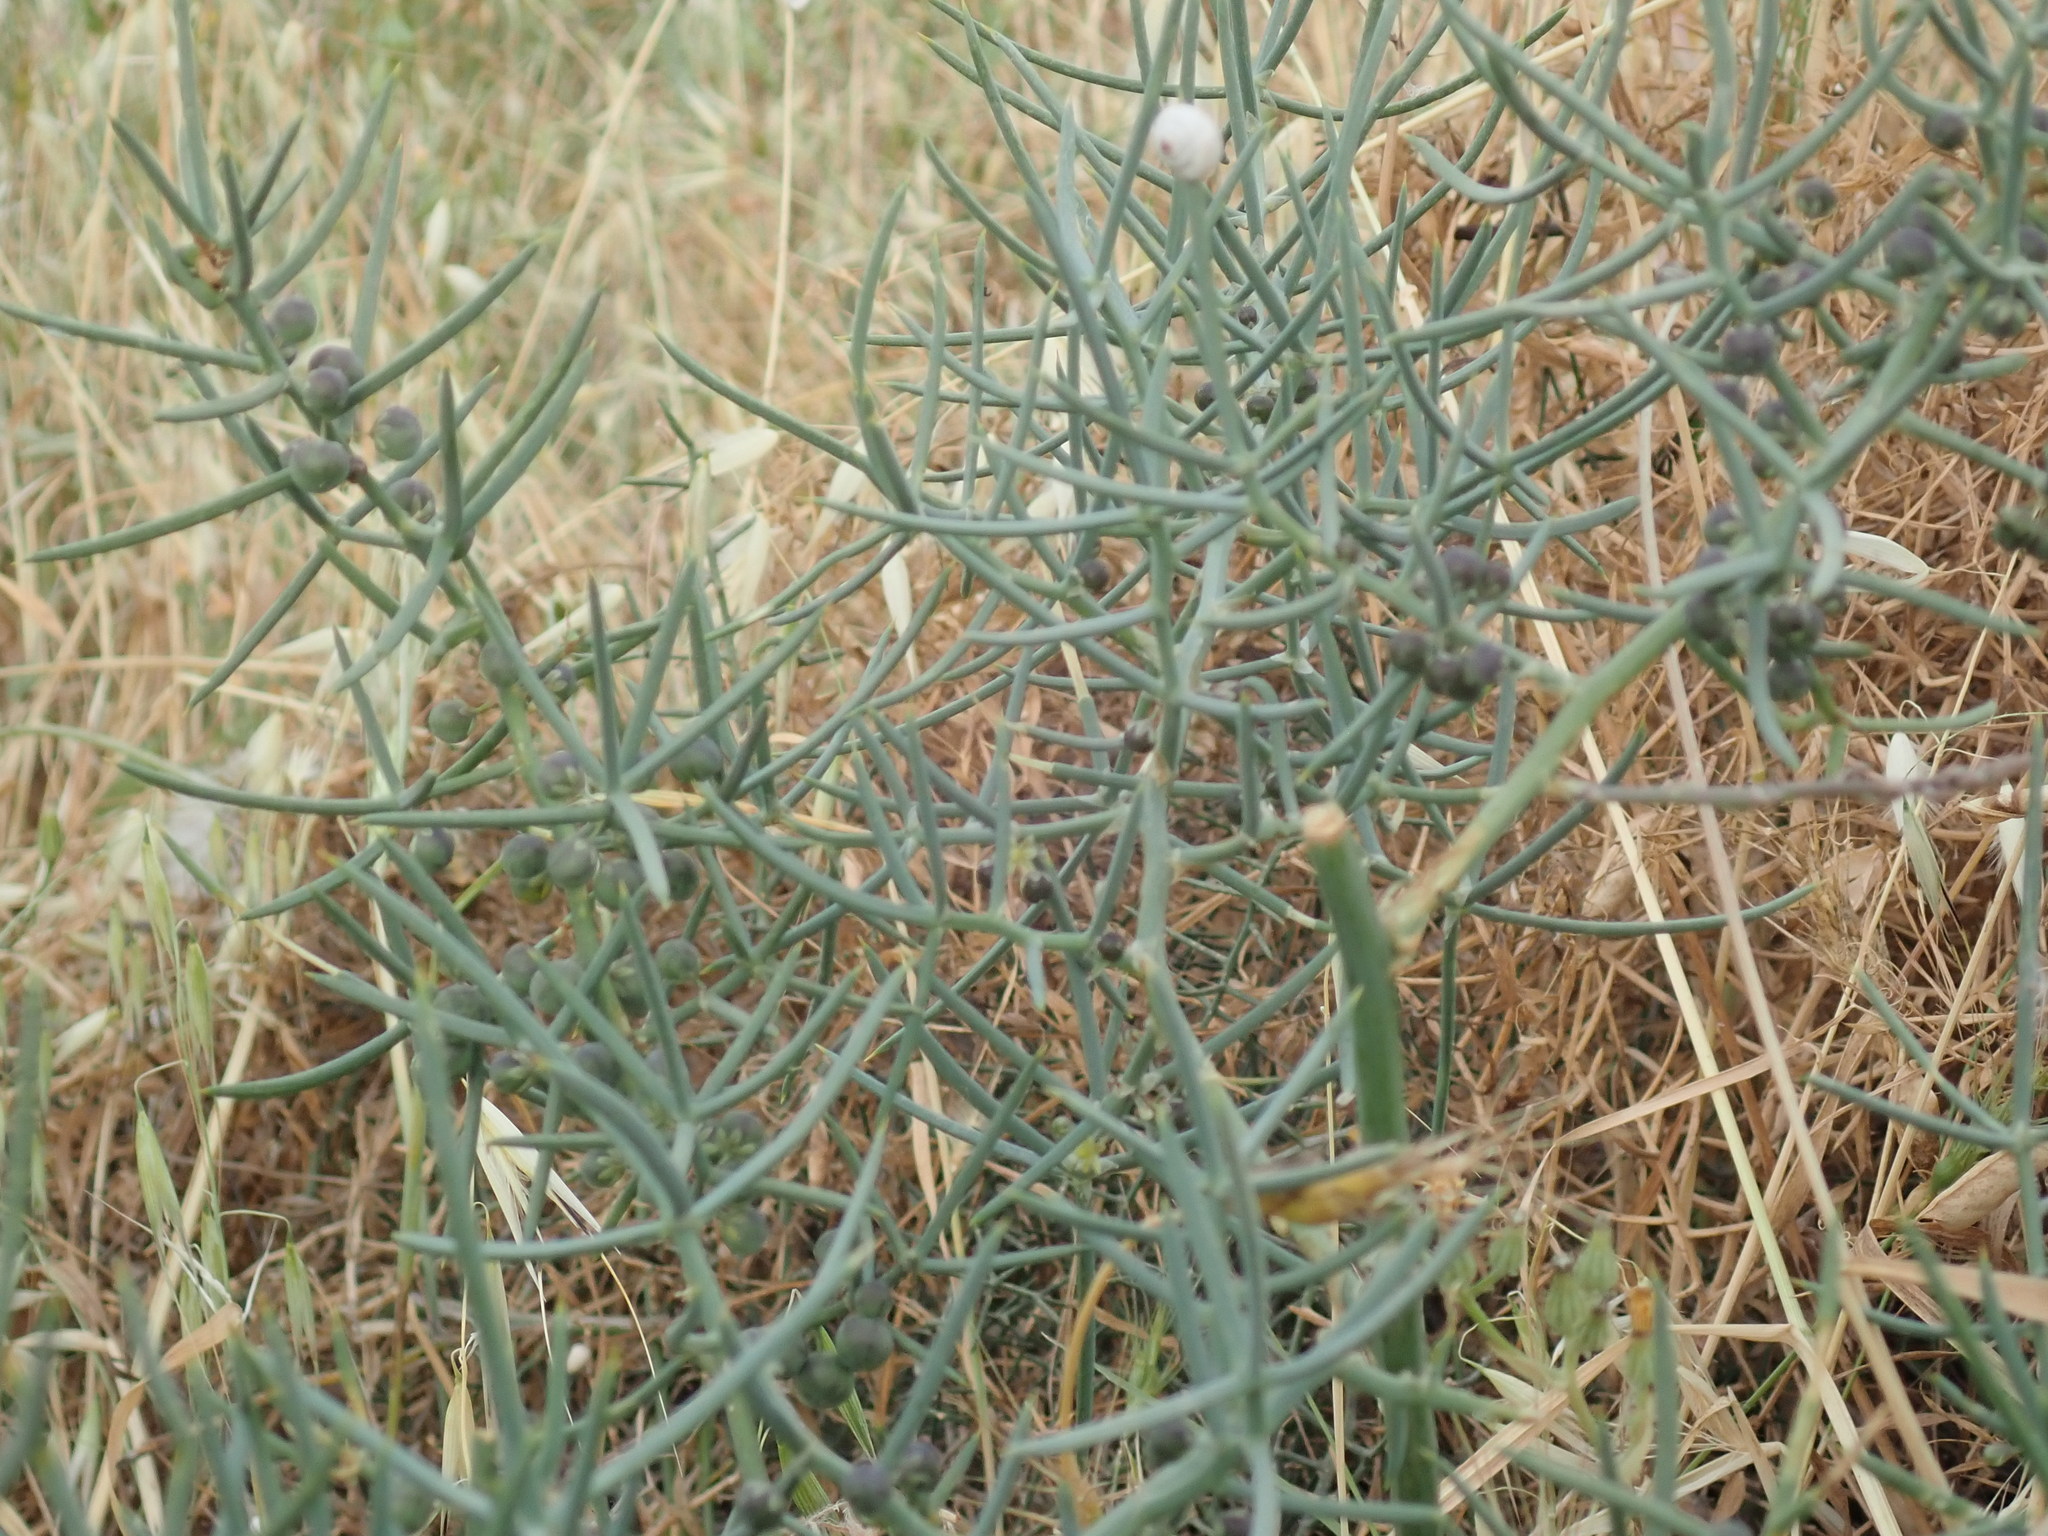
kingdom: Plantae
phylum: Tracheophyta
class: Liliopsida
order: Asparagales
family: Asparagaceae
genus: Asparagus
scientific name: Asparagus horridus
